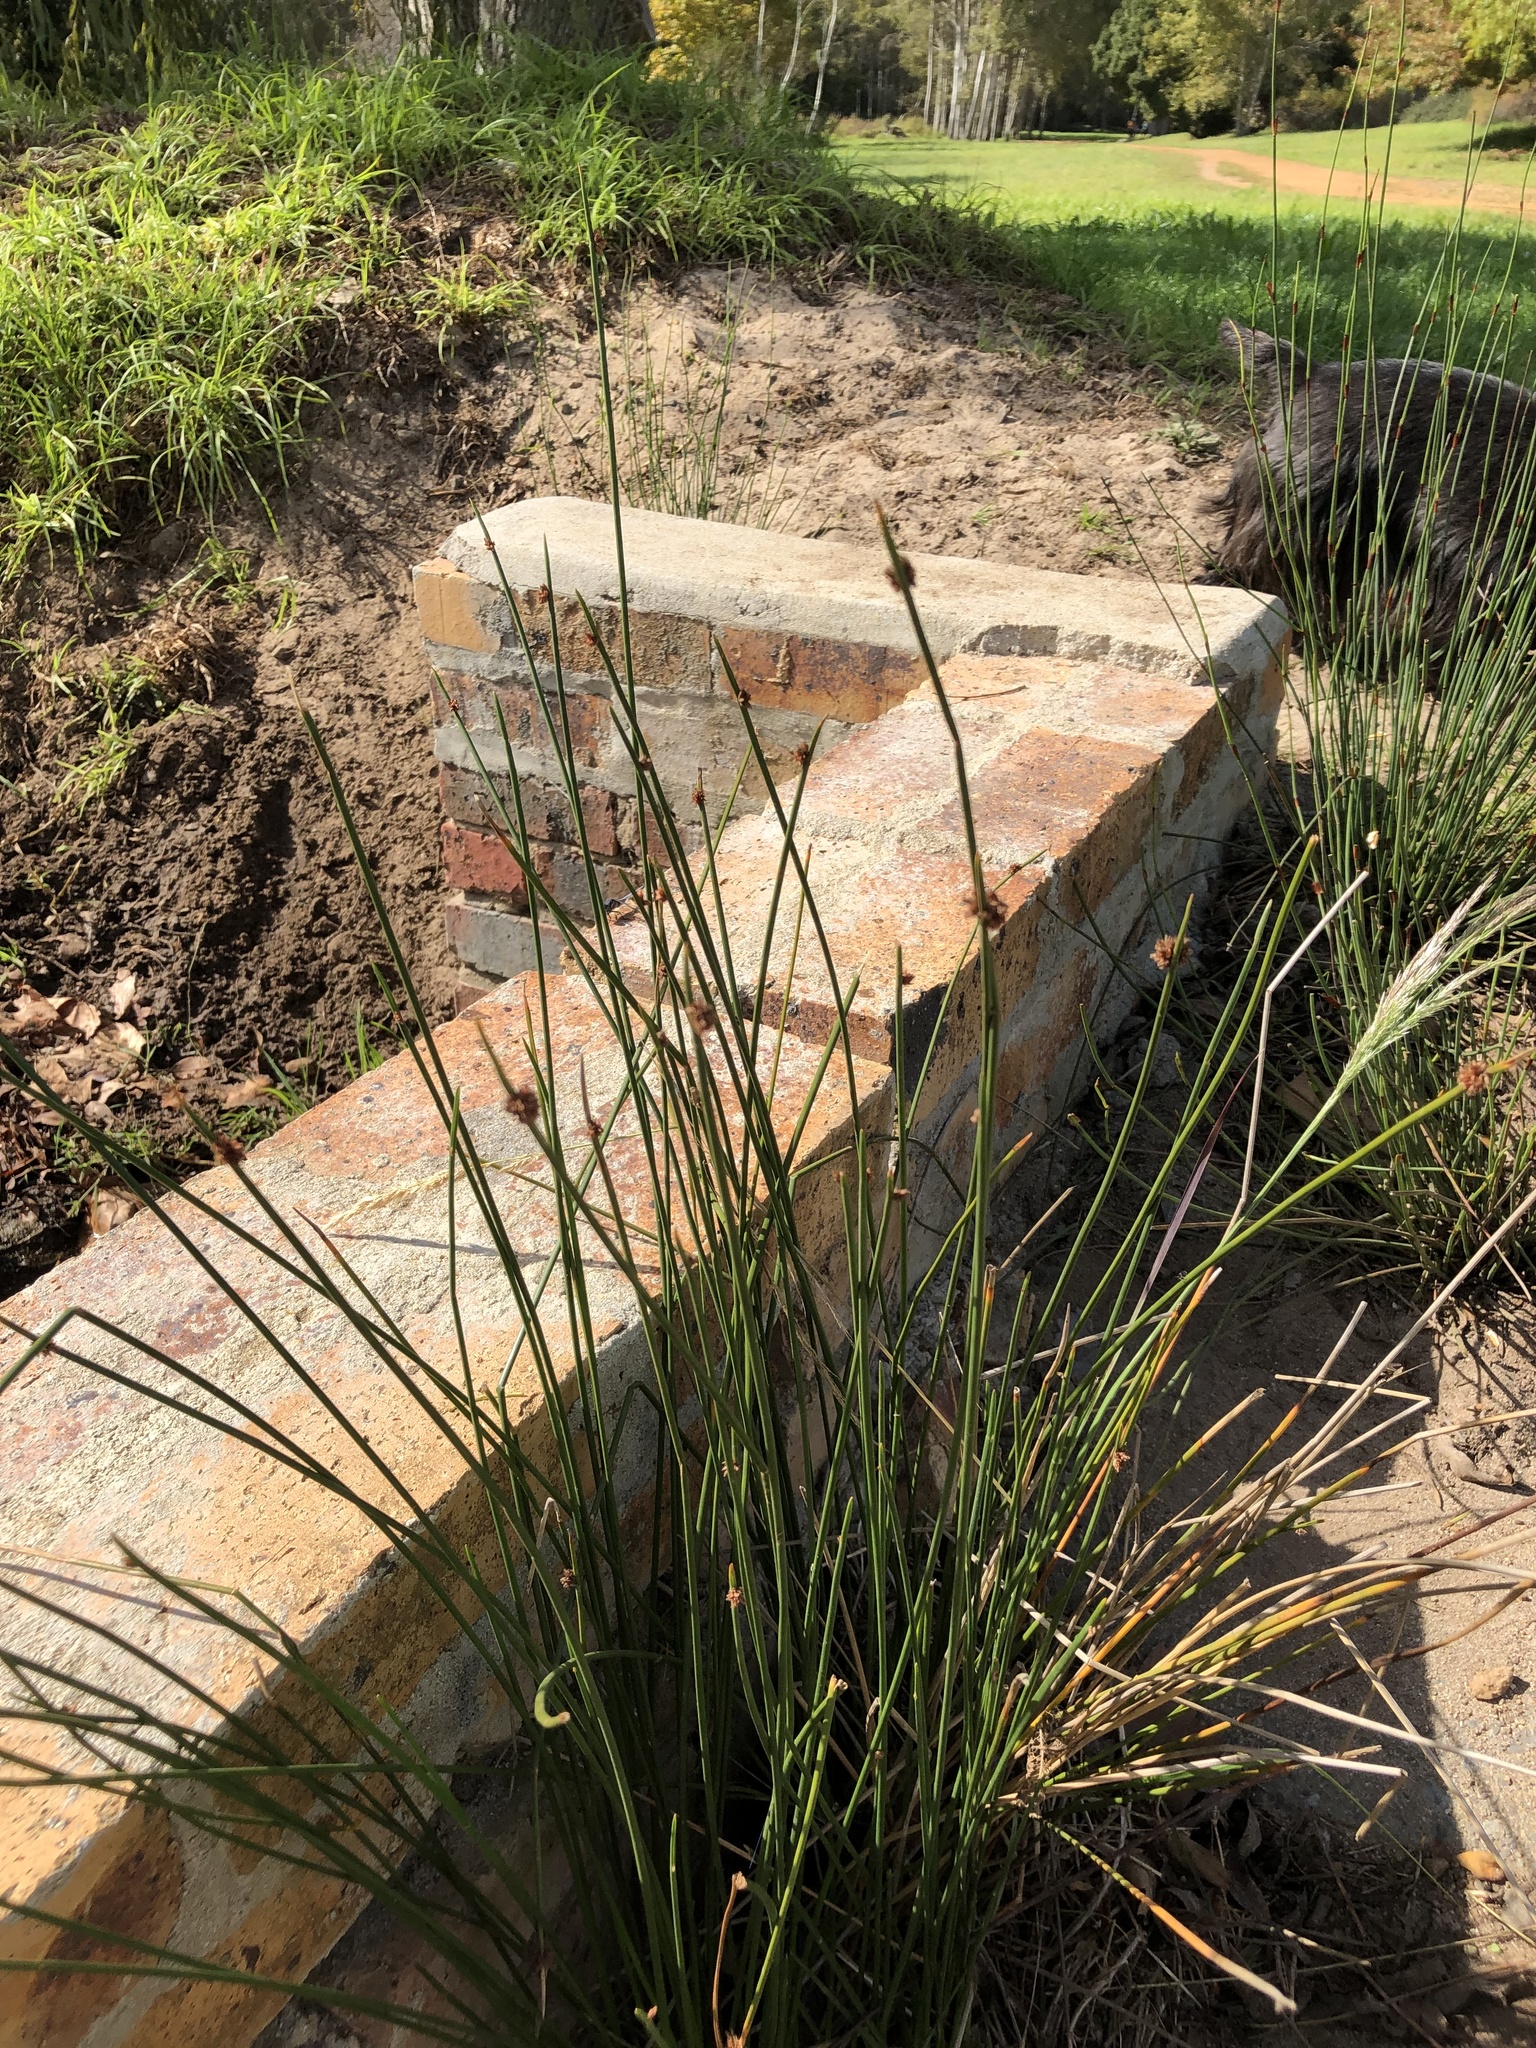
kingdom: Plantae
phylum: Tracheophyta
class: Liliopsida
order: Poales
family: Cyperaceae
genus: Ficinia
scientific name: Ficinia nodosa
